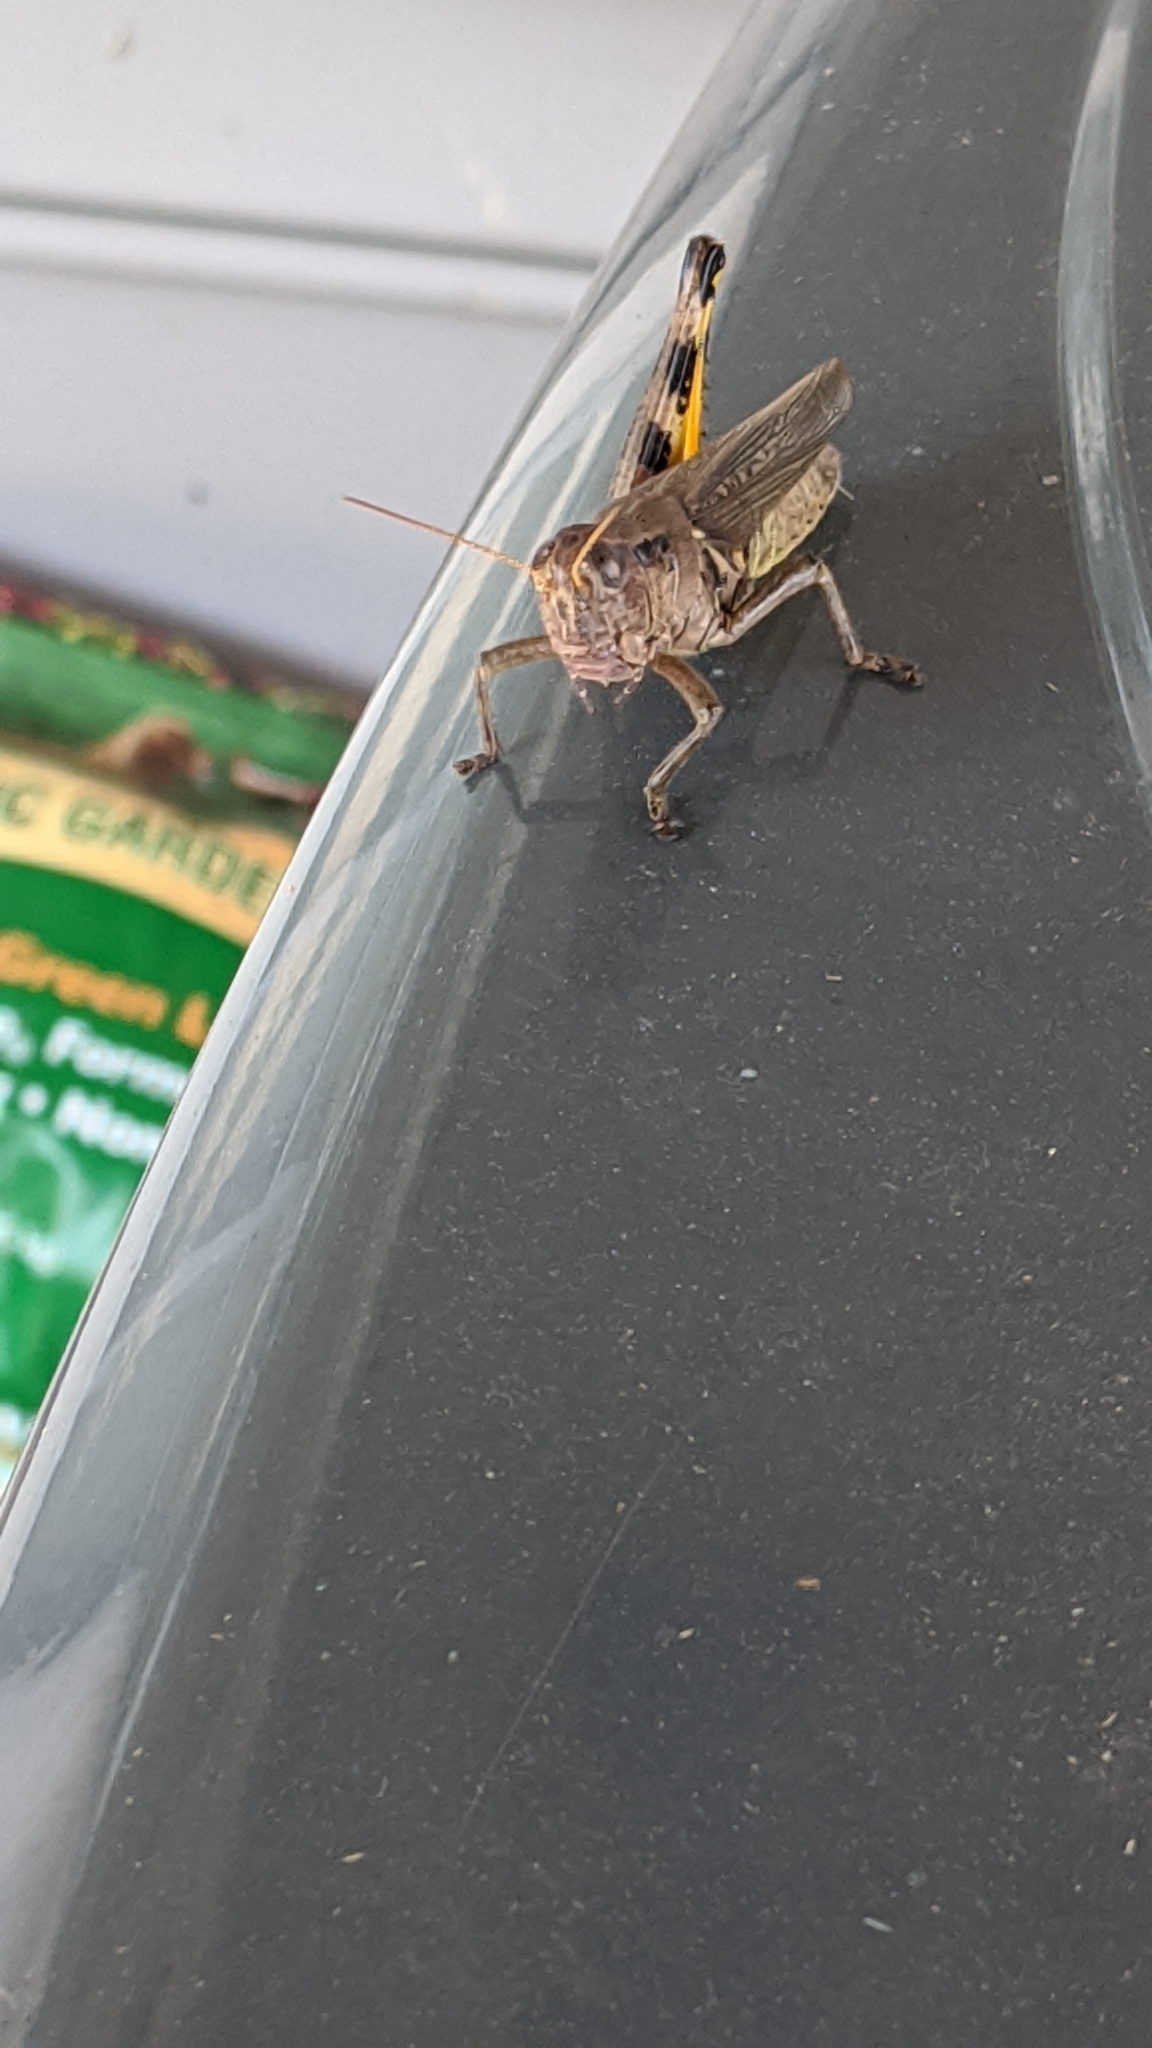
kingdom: Animalia
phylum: Arthropoda
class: Insecta
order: Orthoptera
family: Acrididae
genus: Melanoplus
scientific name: Melanoplus differentialis
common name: Differential grasshopper
